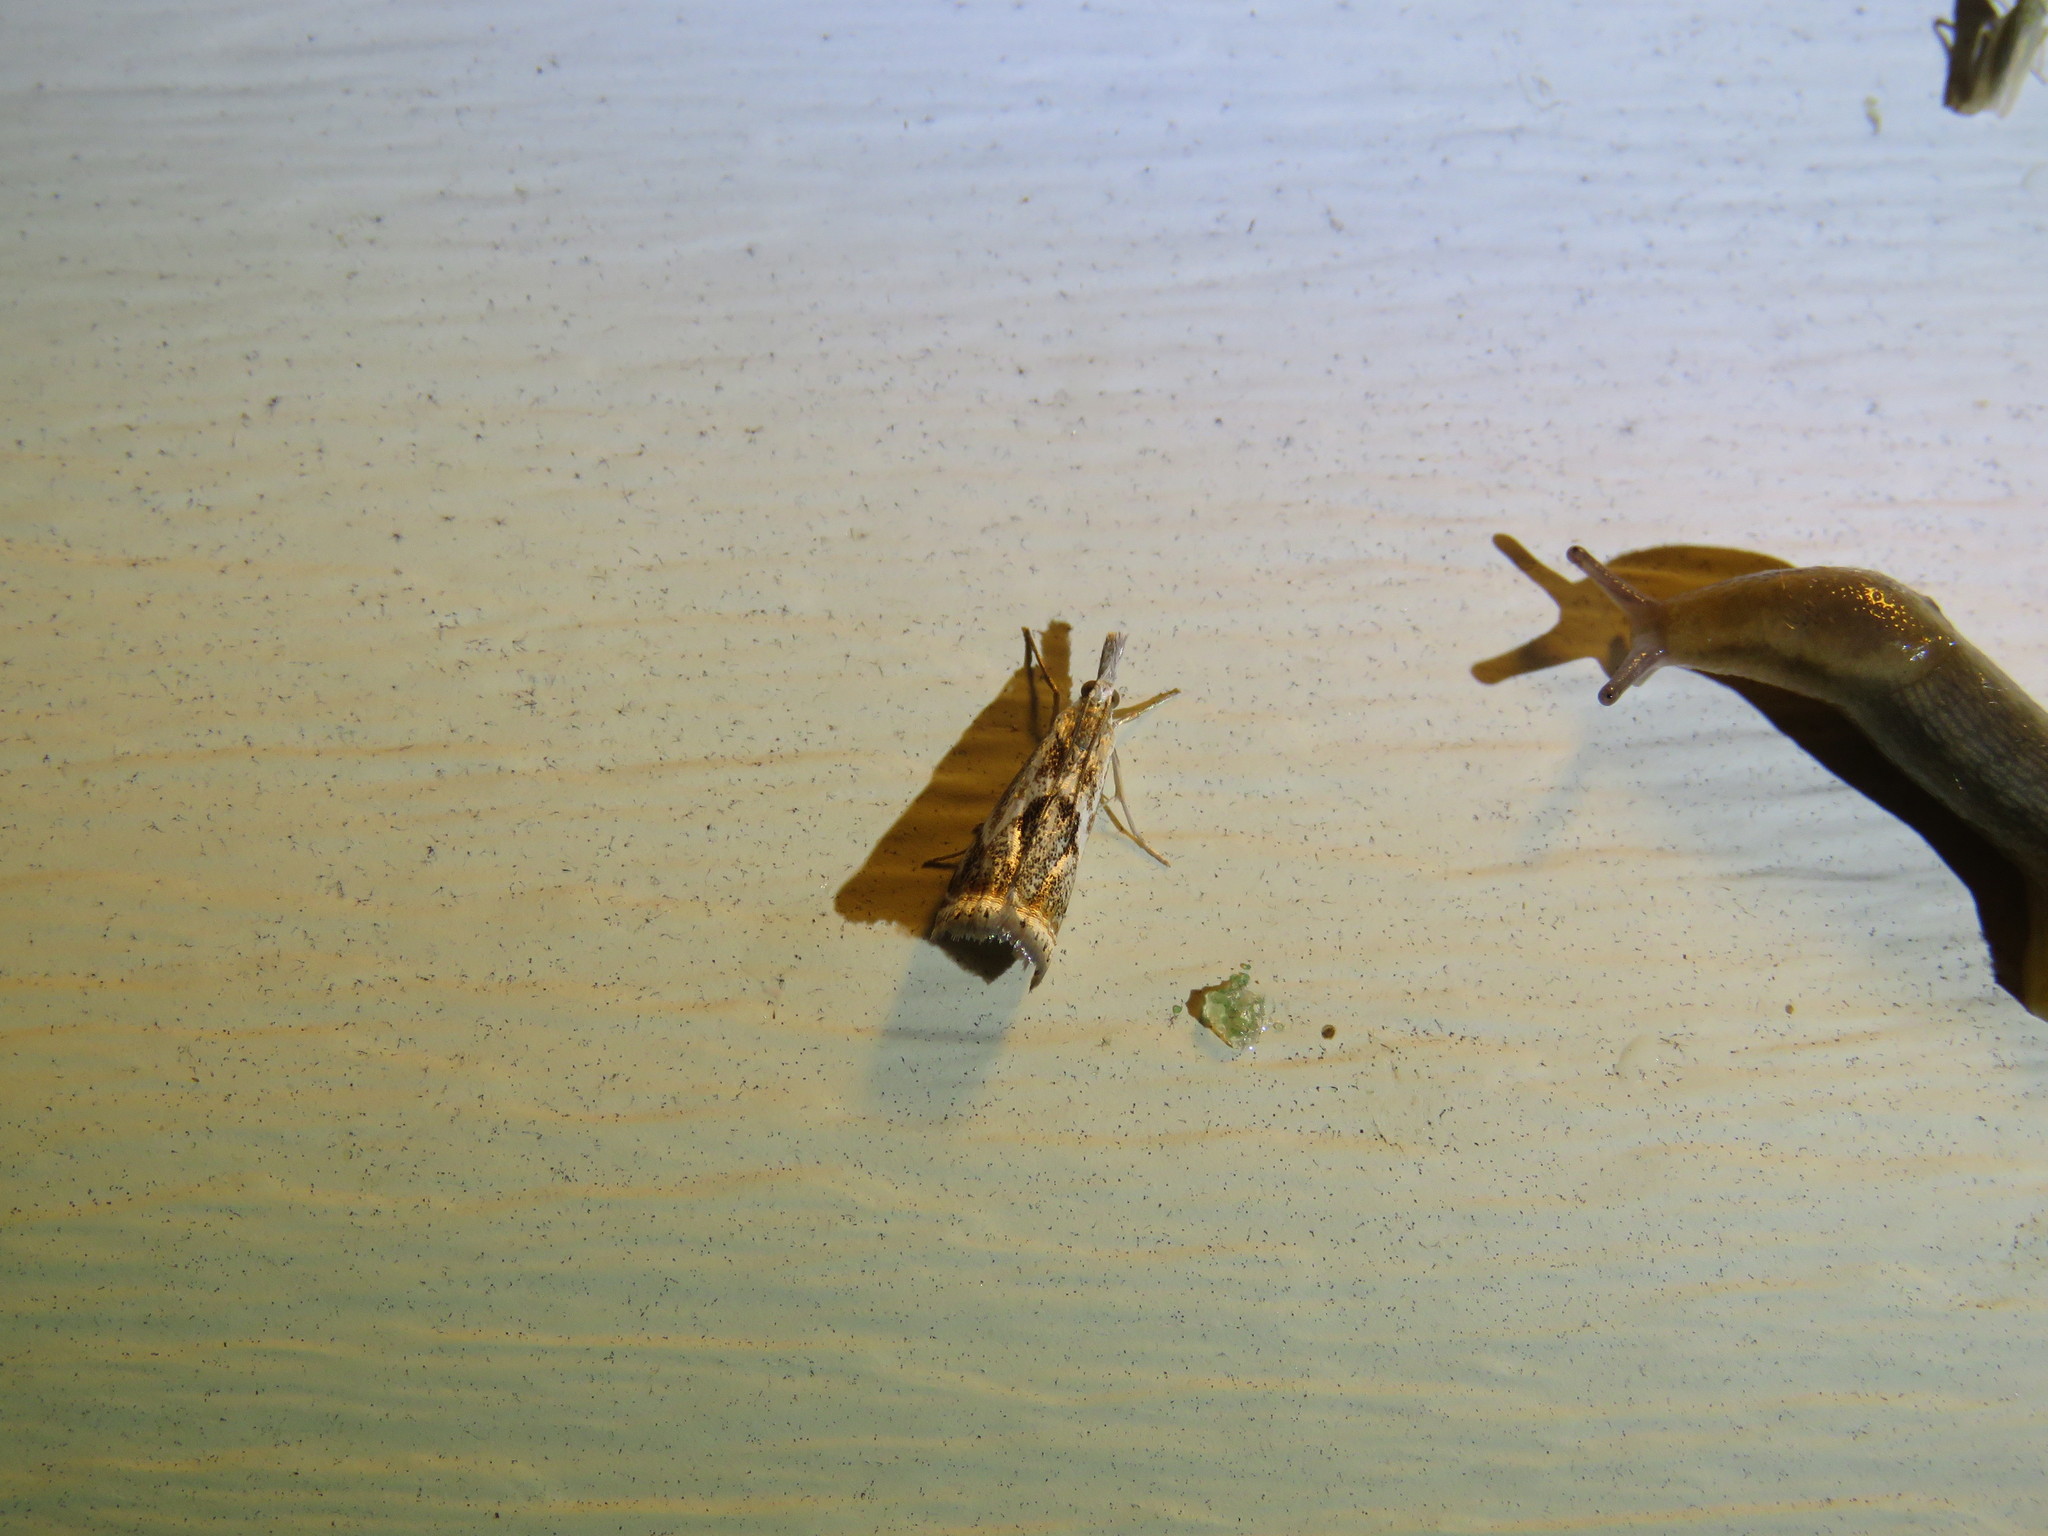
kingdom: Animalia
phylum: Arthropoda
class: Insecta
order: Lepidoptera
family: Crambidae
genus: Microcrambus
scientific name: Microcrambus elegans
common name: Elegant grass-veneer
